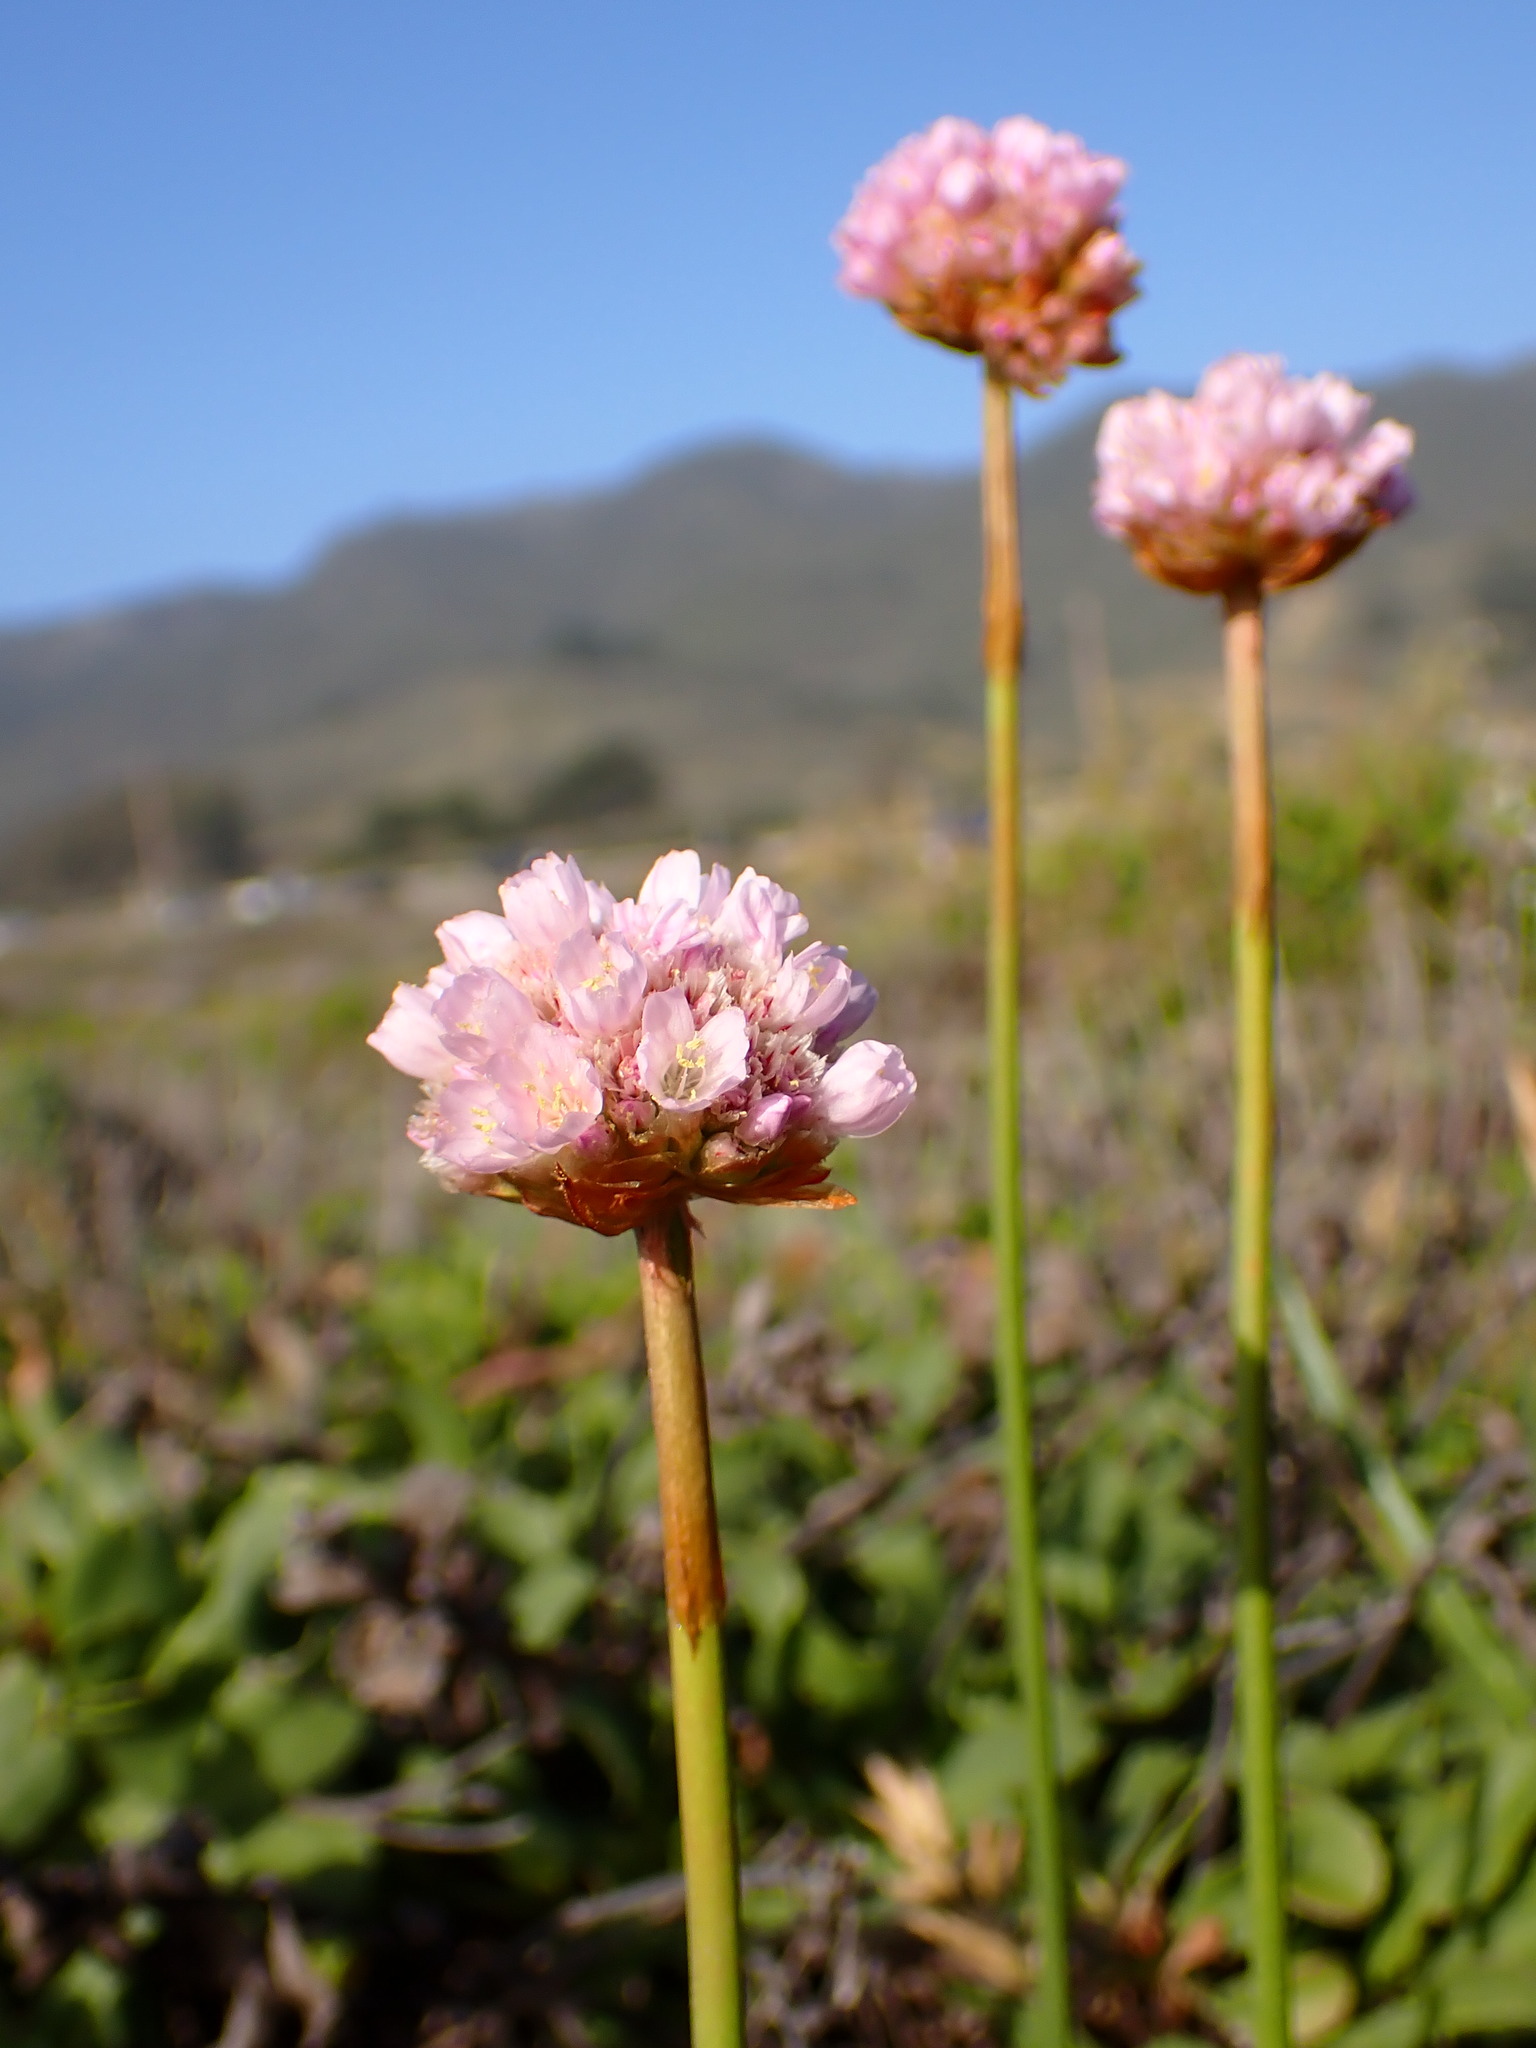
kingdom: Plantae
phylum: Tracheophyta
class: Magnoliopsida
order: Caryophyllales
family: Plumbaginaceae
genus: Armeria
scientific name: Armeria maritima
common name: Thrift
